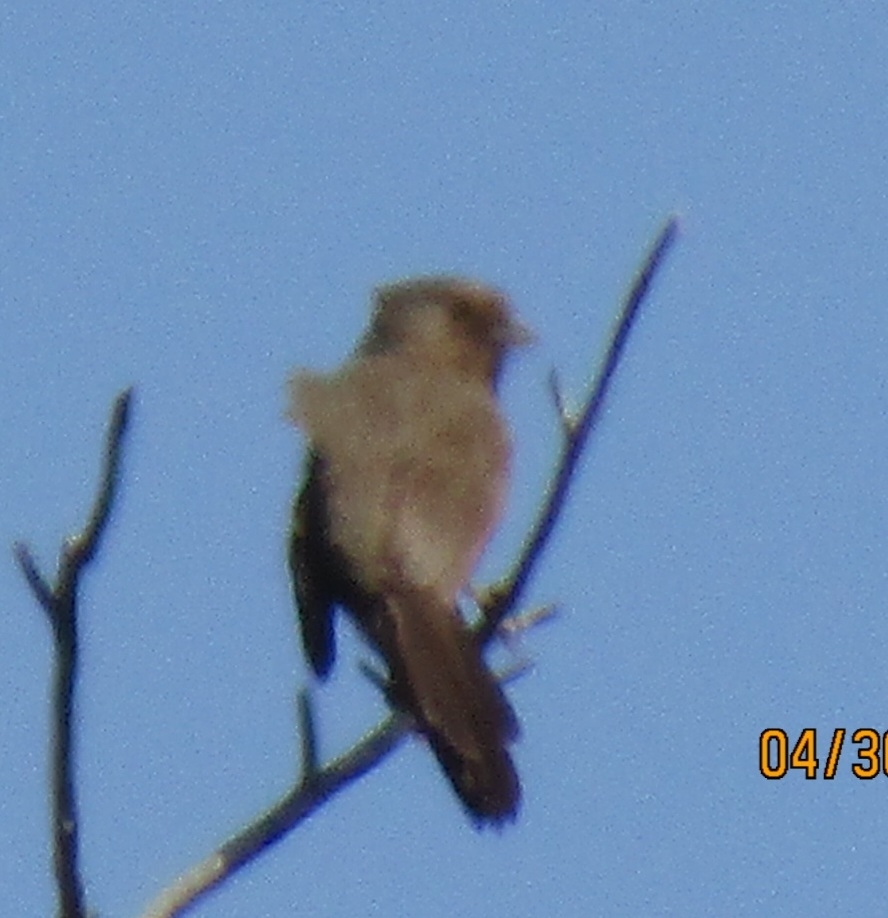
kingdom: Animalia
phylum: Chordata
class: Aves
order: Passeriformes
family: Passerellidae
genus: Melozone
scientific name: Melozone crissalis
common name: California towhee
